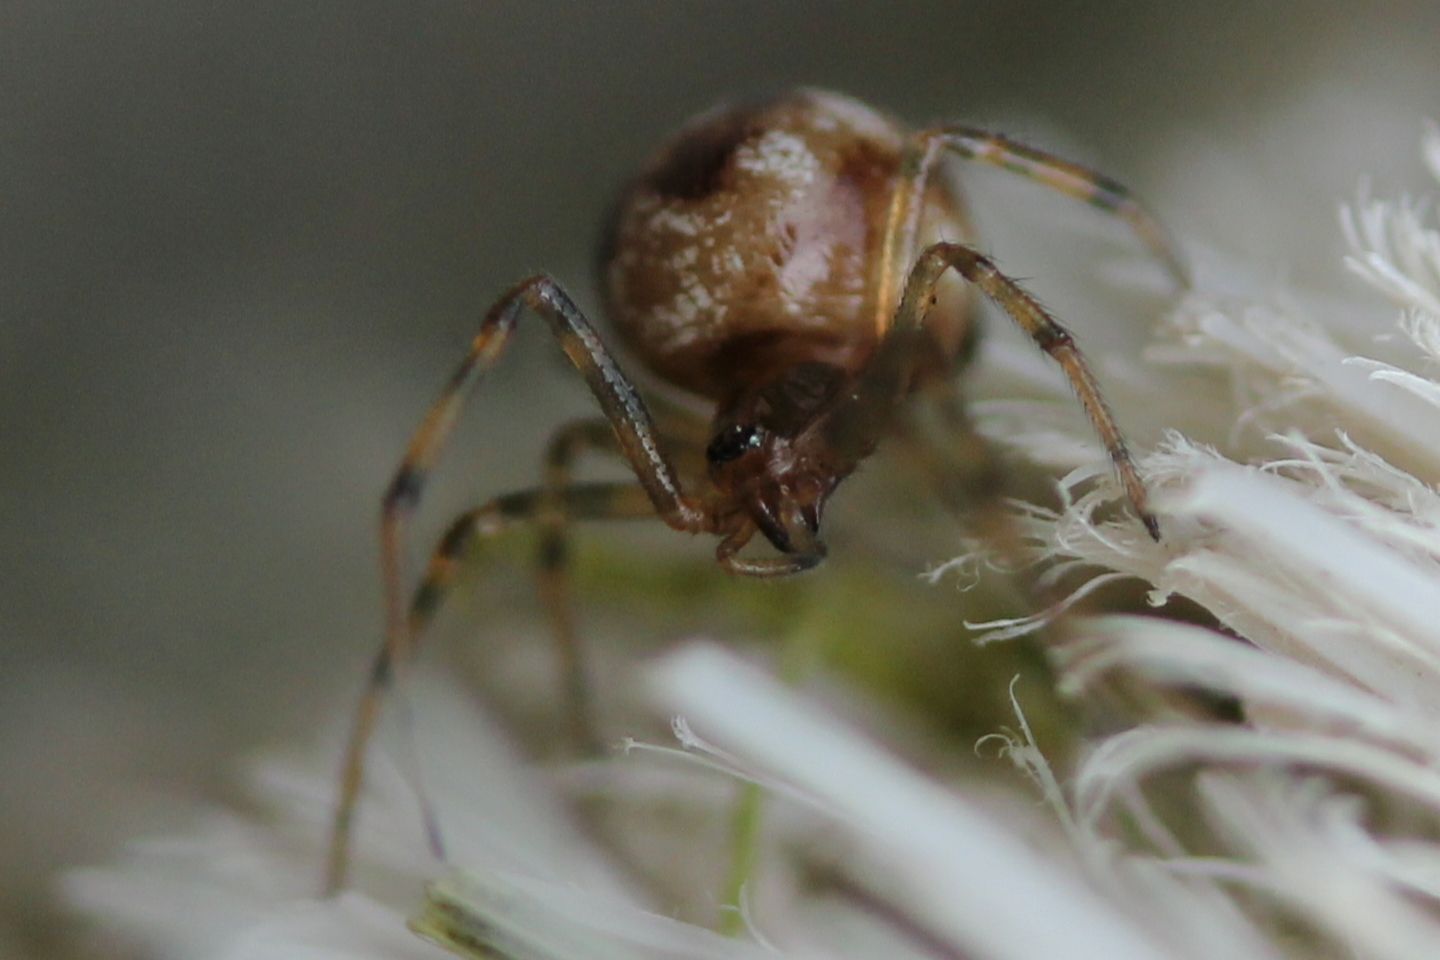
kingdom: Animalia
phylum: Arthropoda
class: Arachnida
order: Araneae
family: Theridiidae
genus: Steatoda
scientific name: Steatoda triangulosa
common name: Triangulate bud spider
